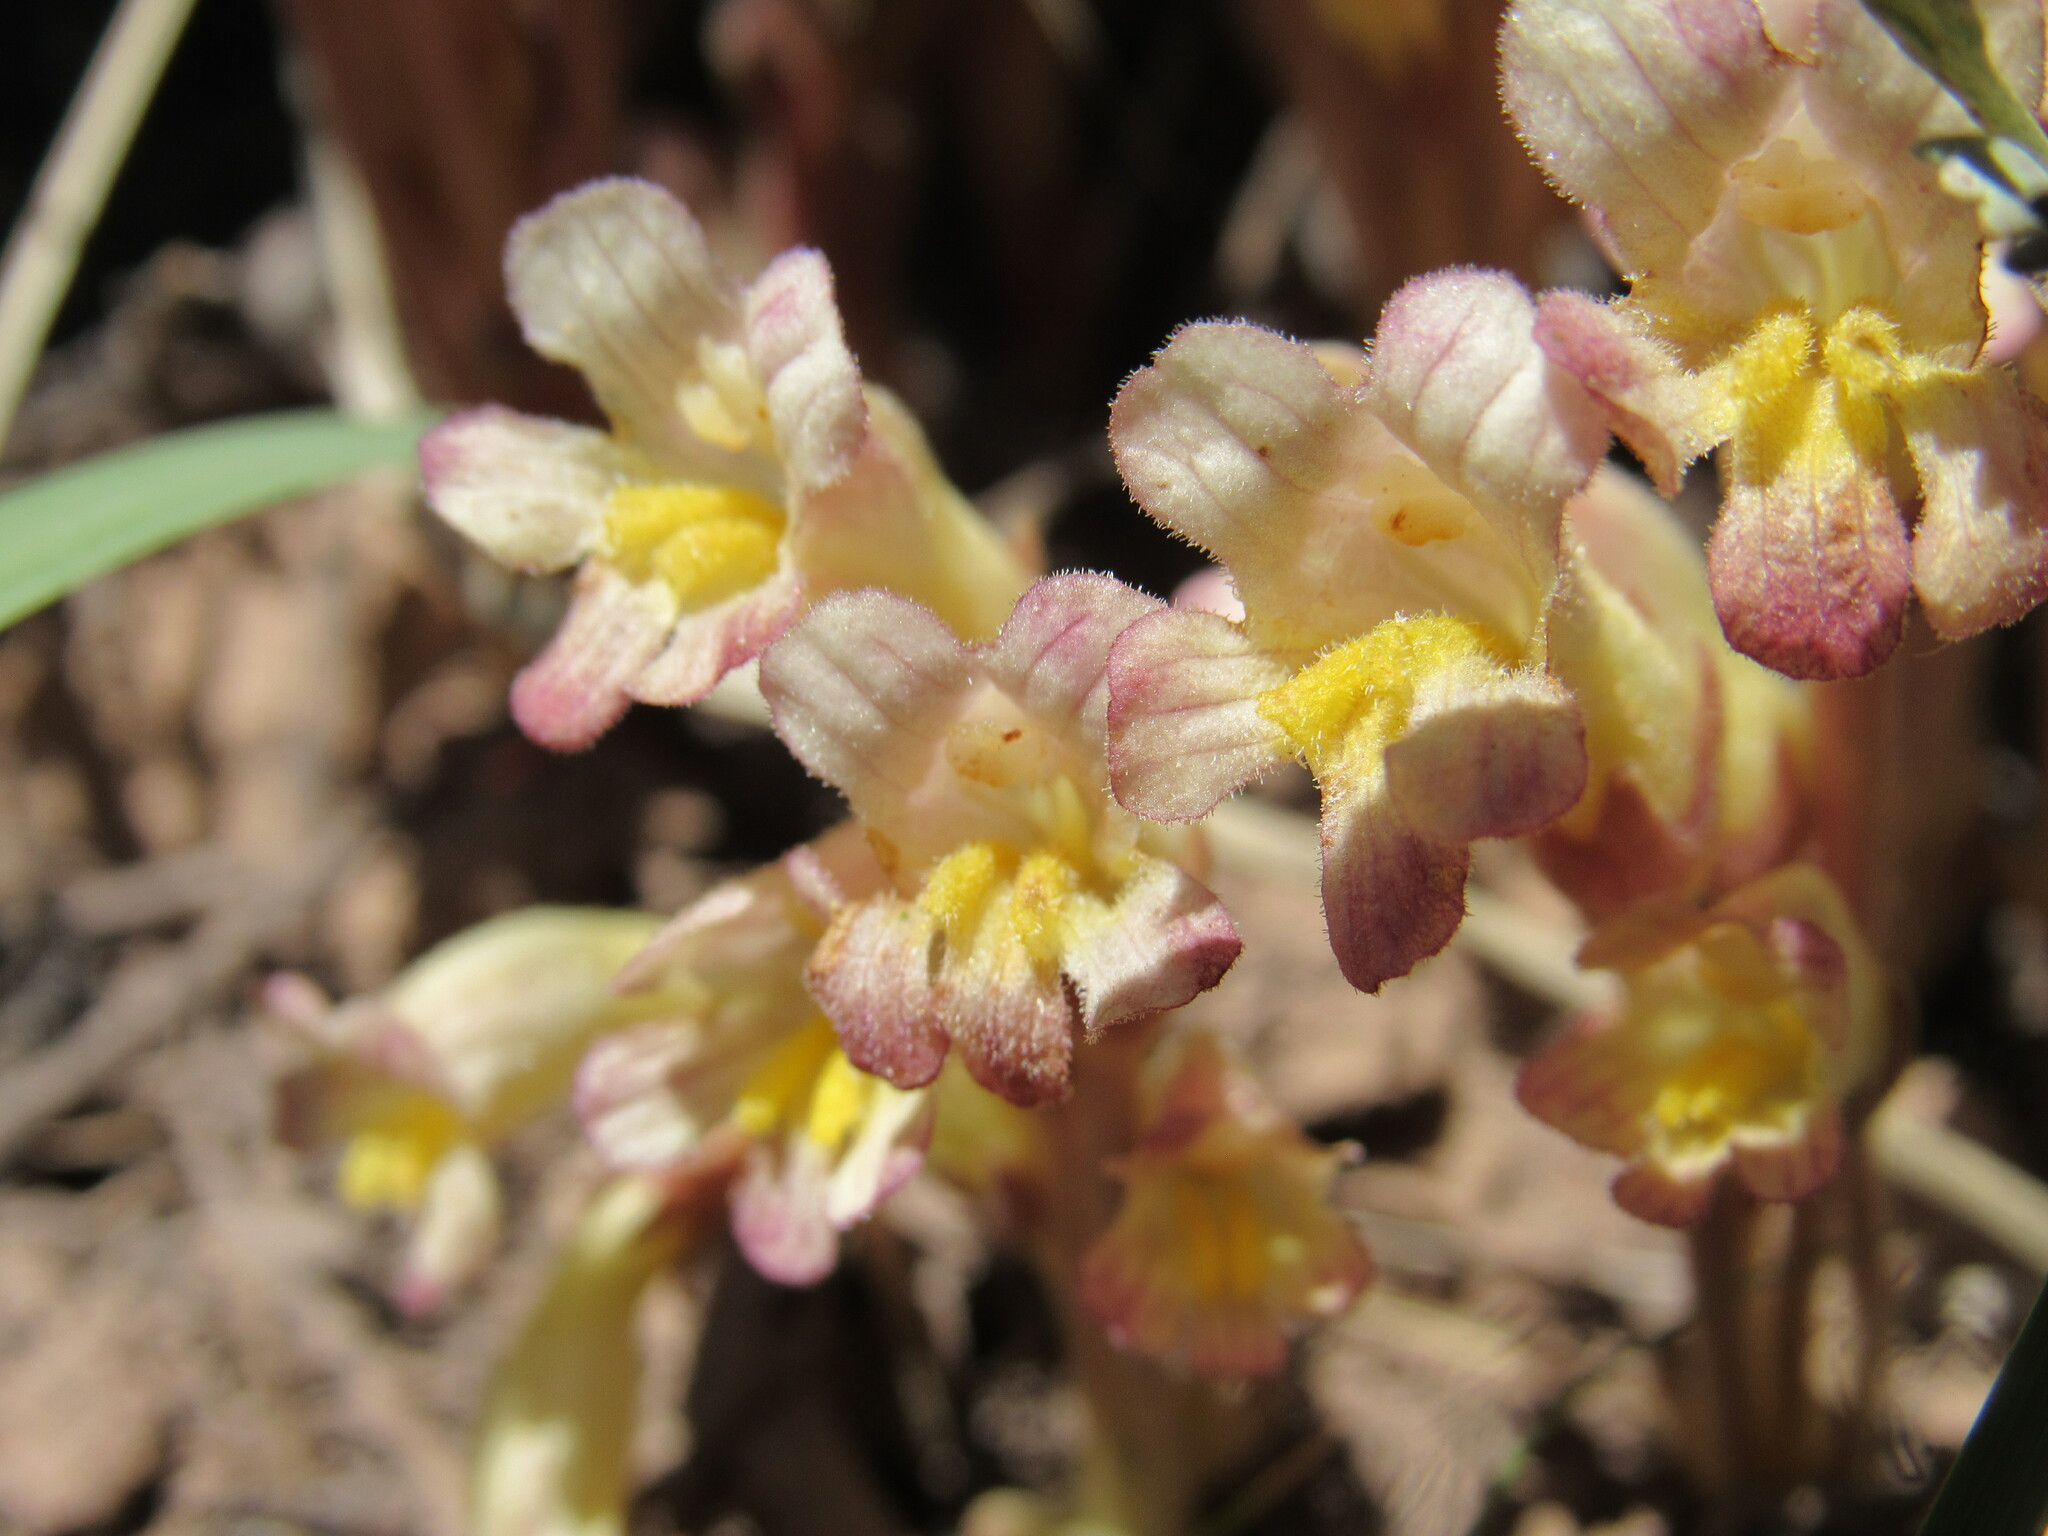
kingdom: Plantae
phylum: Tracheophyta
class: Magnoliopsida
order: Lamiales
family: Orobanchaceae
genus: Aphyllon
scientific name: Aphyllon fasciculatum
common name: Clustered broomrape
